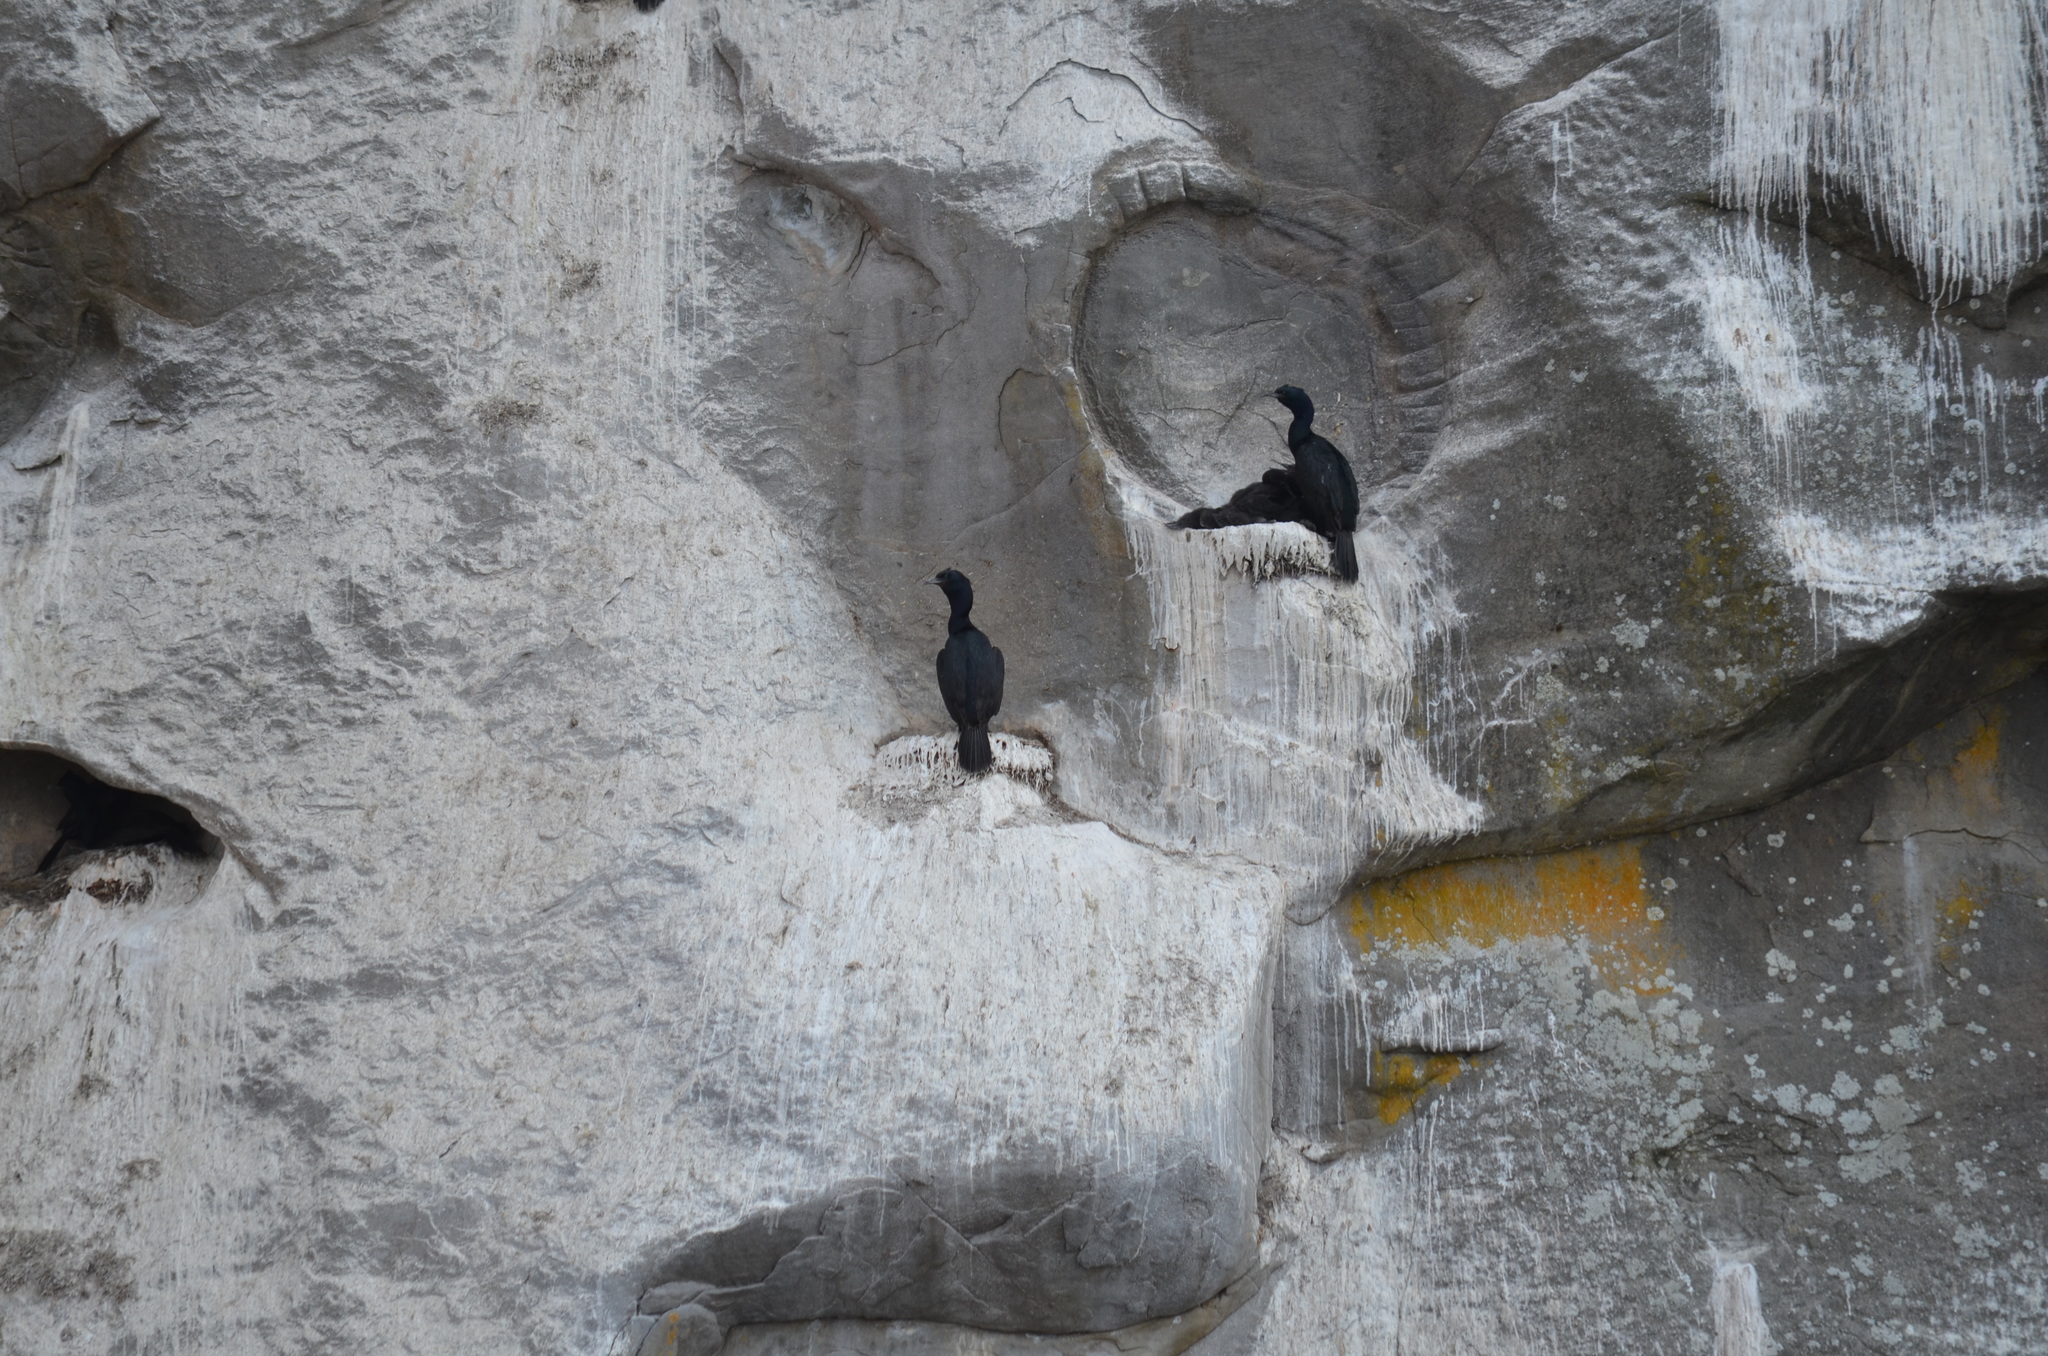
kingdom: Animalia
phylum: Chordata
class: Aves
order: Suliformes
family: Phalacrocoracidae
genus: Phalacrocorax
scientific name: Phalacrocorax pelagicus
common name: Pelagic cormorant
